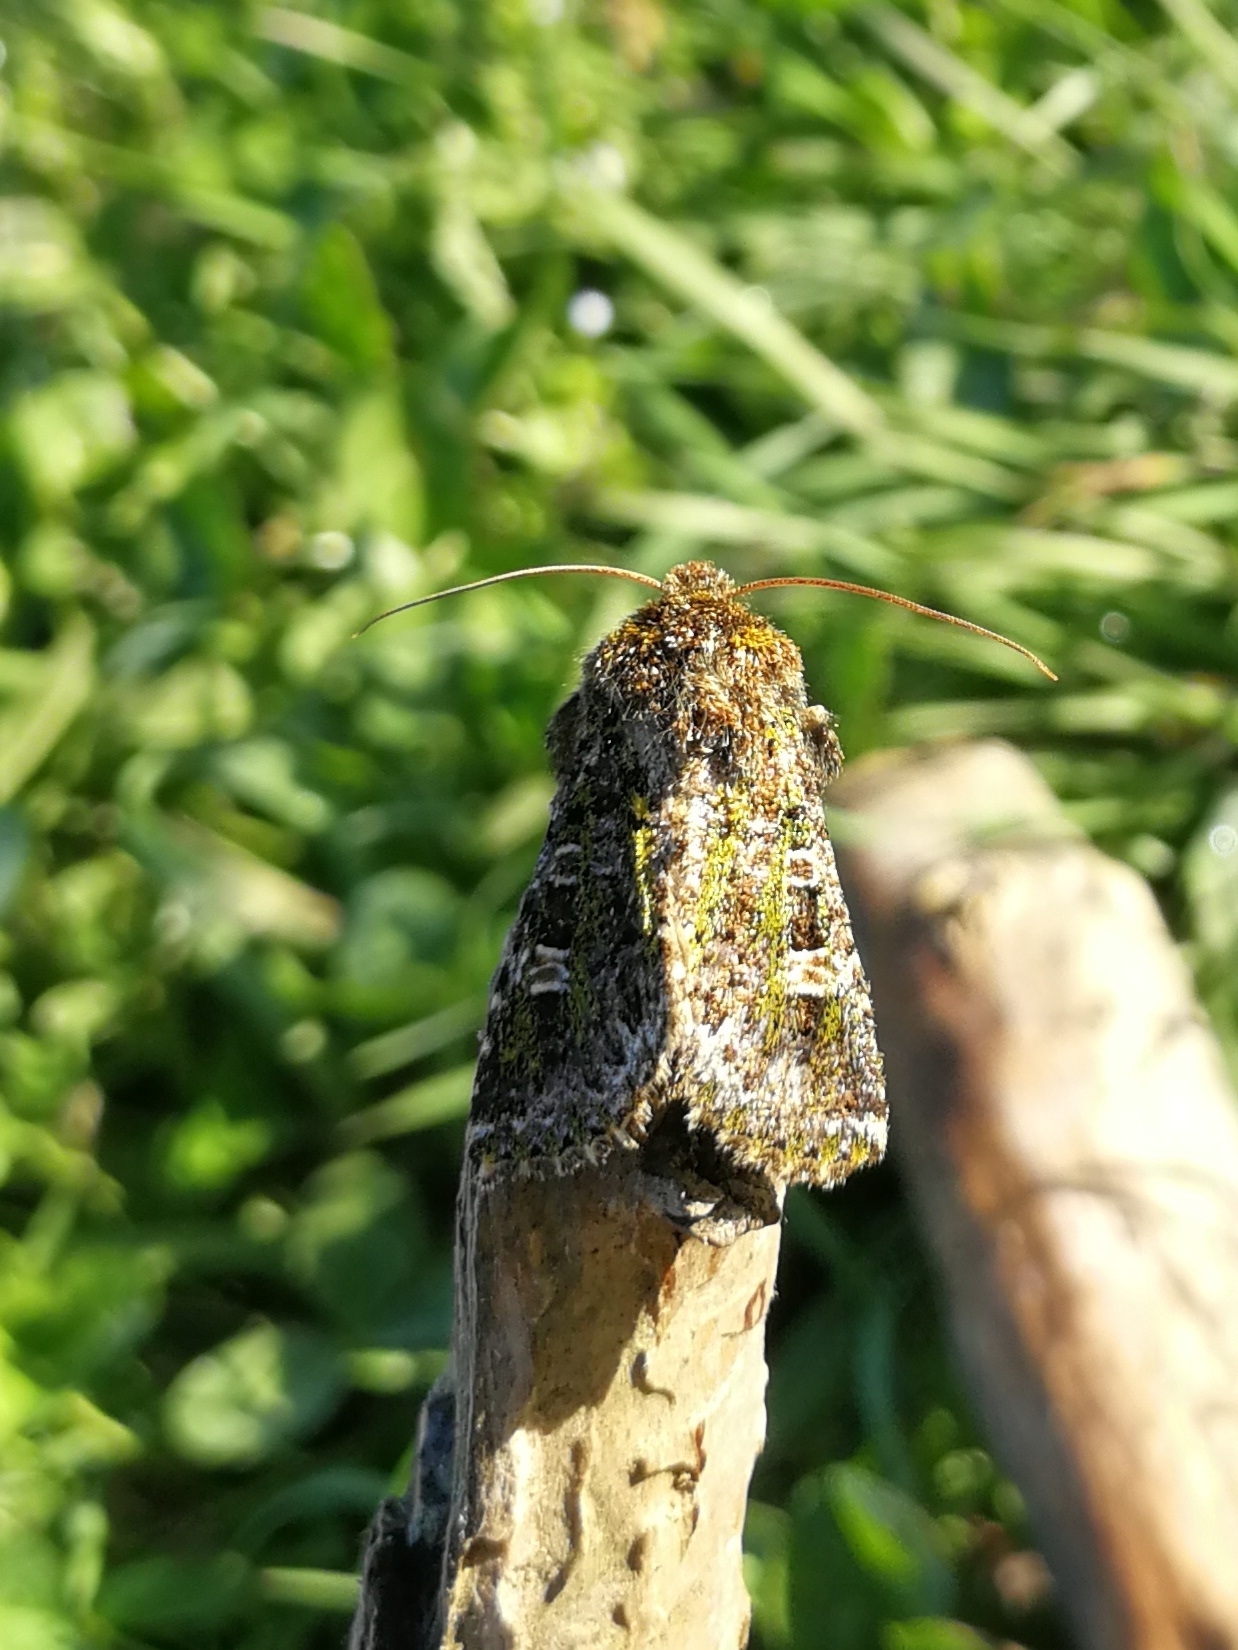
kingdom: Animalia
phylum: Arthropoda
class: Insecta
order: Lepidoptera
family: Noctuidae
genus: Valeria
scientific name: Valeria jaspidea
